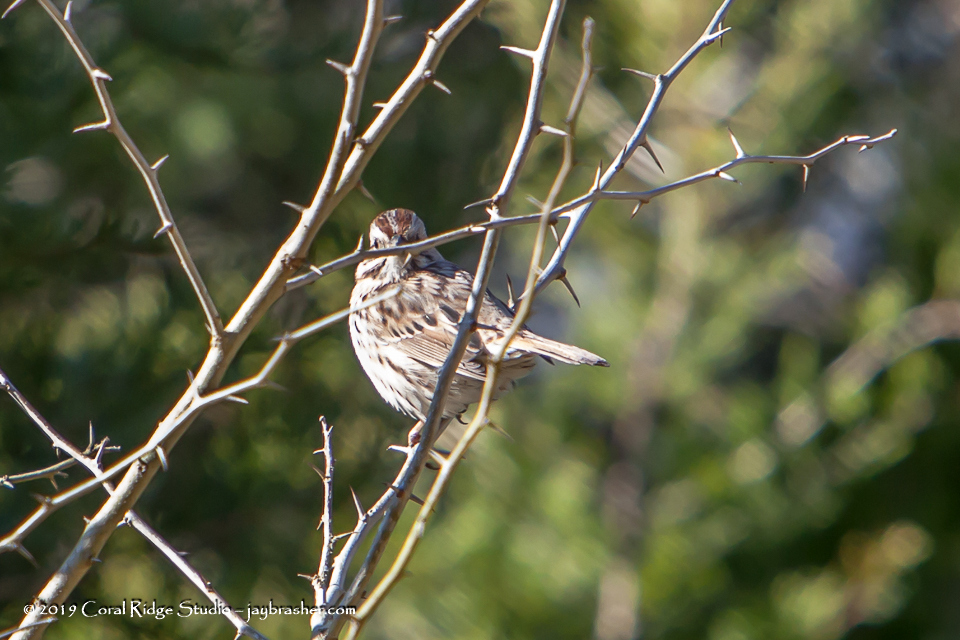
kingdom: Animalia
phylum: Chordata
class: Aves
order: Passeriformes
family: Passerellidae
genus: Melospiza
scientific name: Melospiza melodia
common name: Song sparrow
